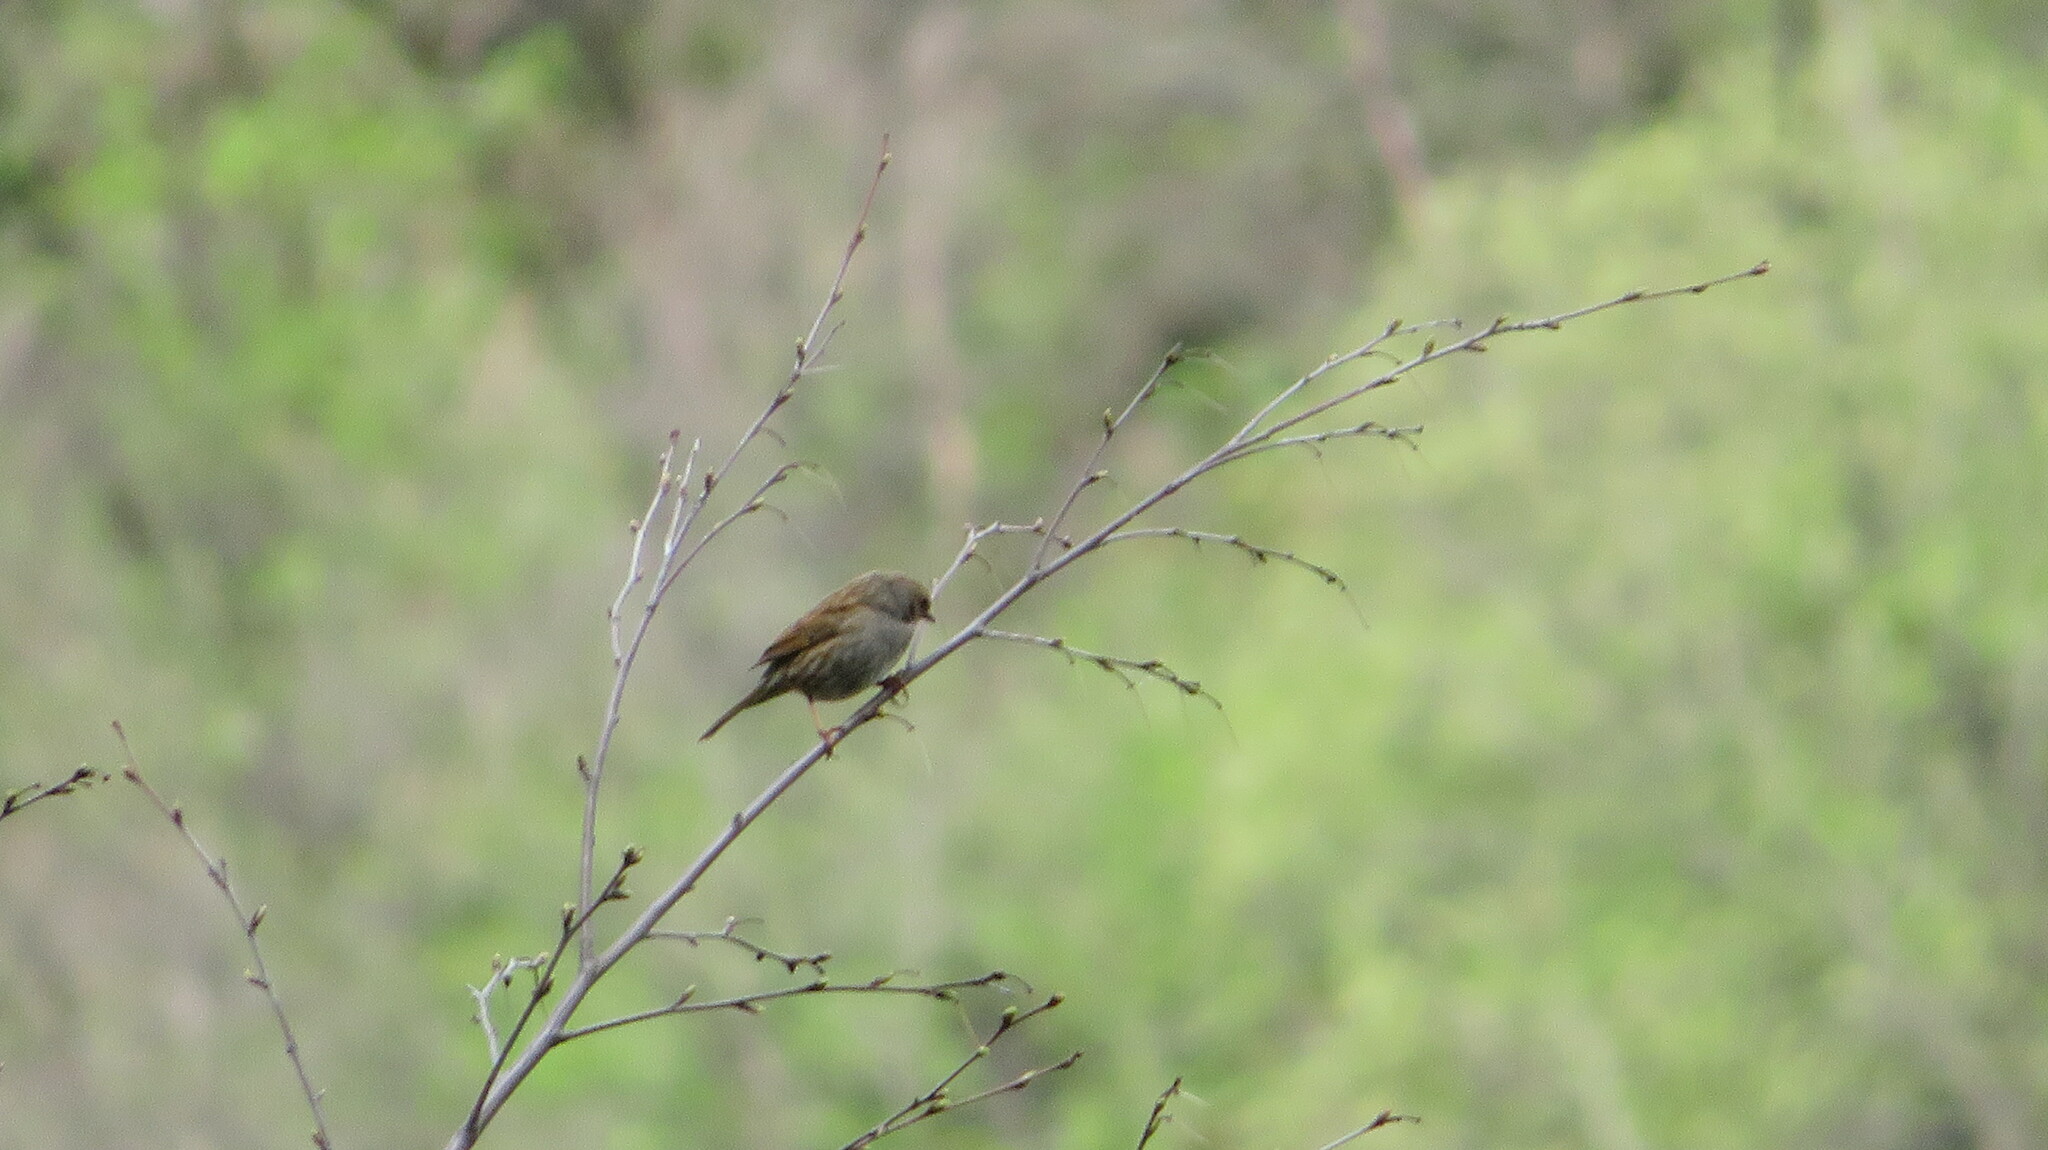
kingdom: Animalia
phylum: Chordata
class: Aves
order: Passeriformes
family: Prunellidae
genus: Prunella
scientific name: Prunella modularis
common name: Dunnock
